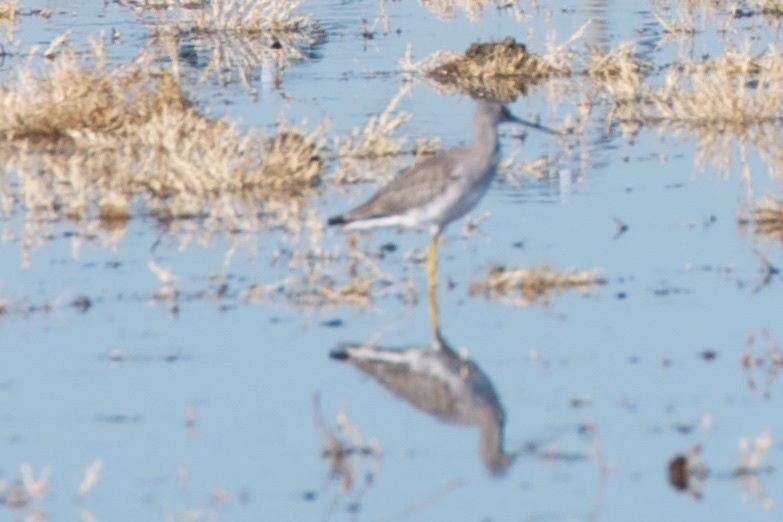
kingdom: Animalia
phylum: Chordata
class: Aves
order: Charadriiformes
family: Scolopacidae
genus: Tringa
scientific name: Tringa melanoleuca
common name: Greater yellowlegs
